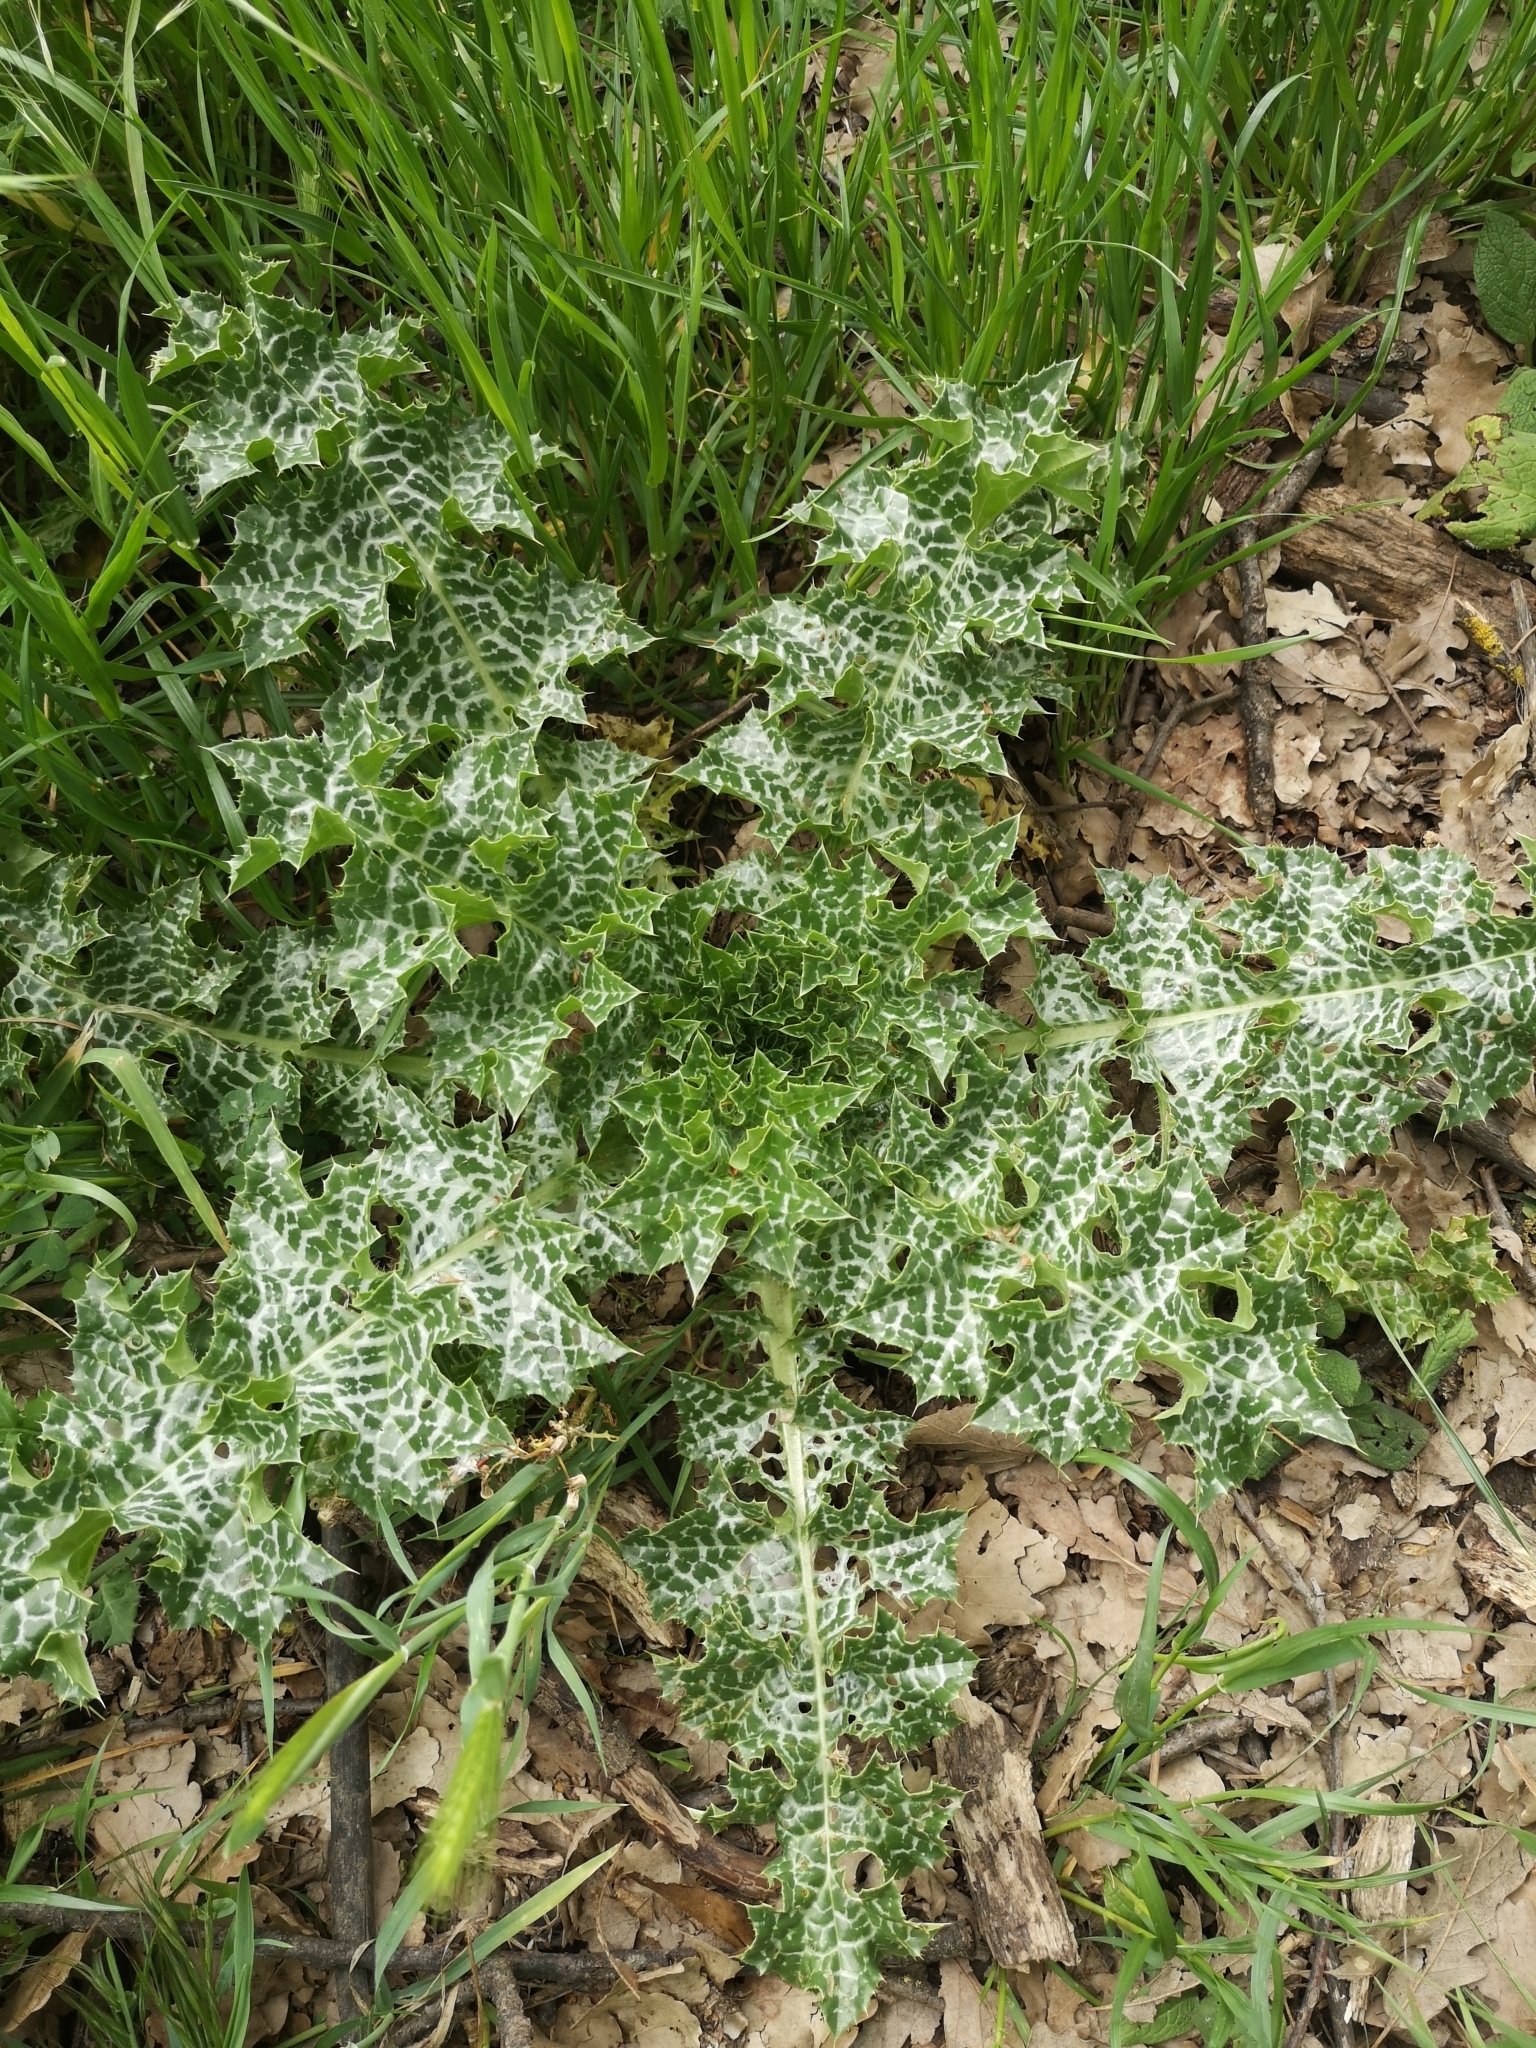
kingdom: Plantae
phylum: Tracheophyta
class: Magnoliopsida
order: Asterales
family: Asteraceae
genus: Silybum
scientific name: Silybum marianum
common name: Milk thistle
